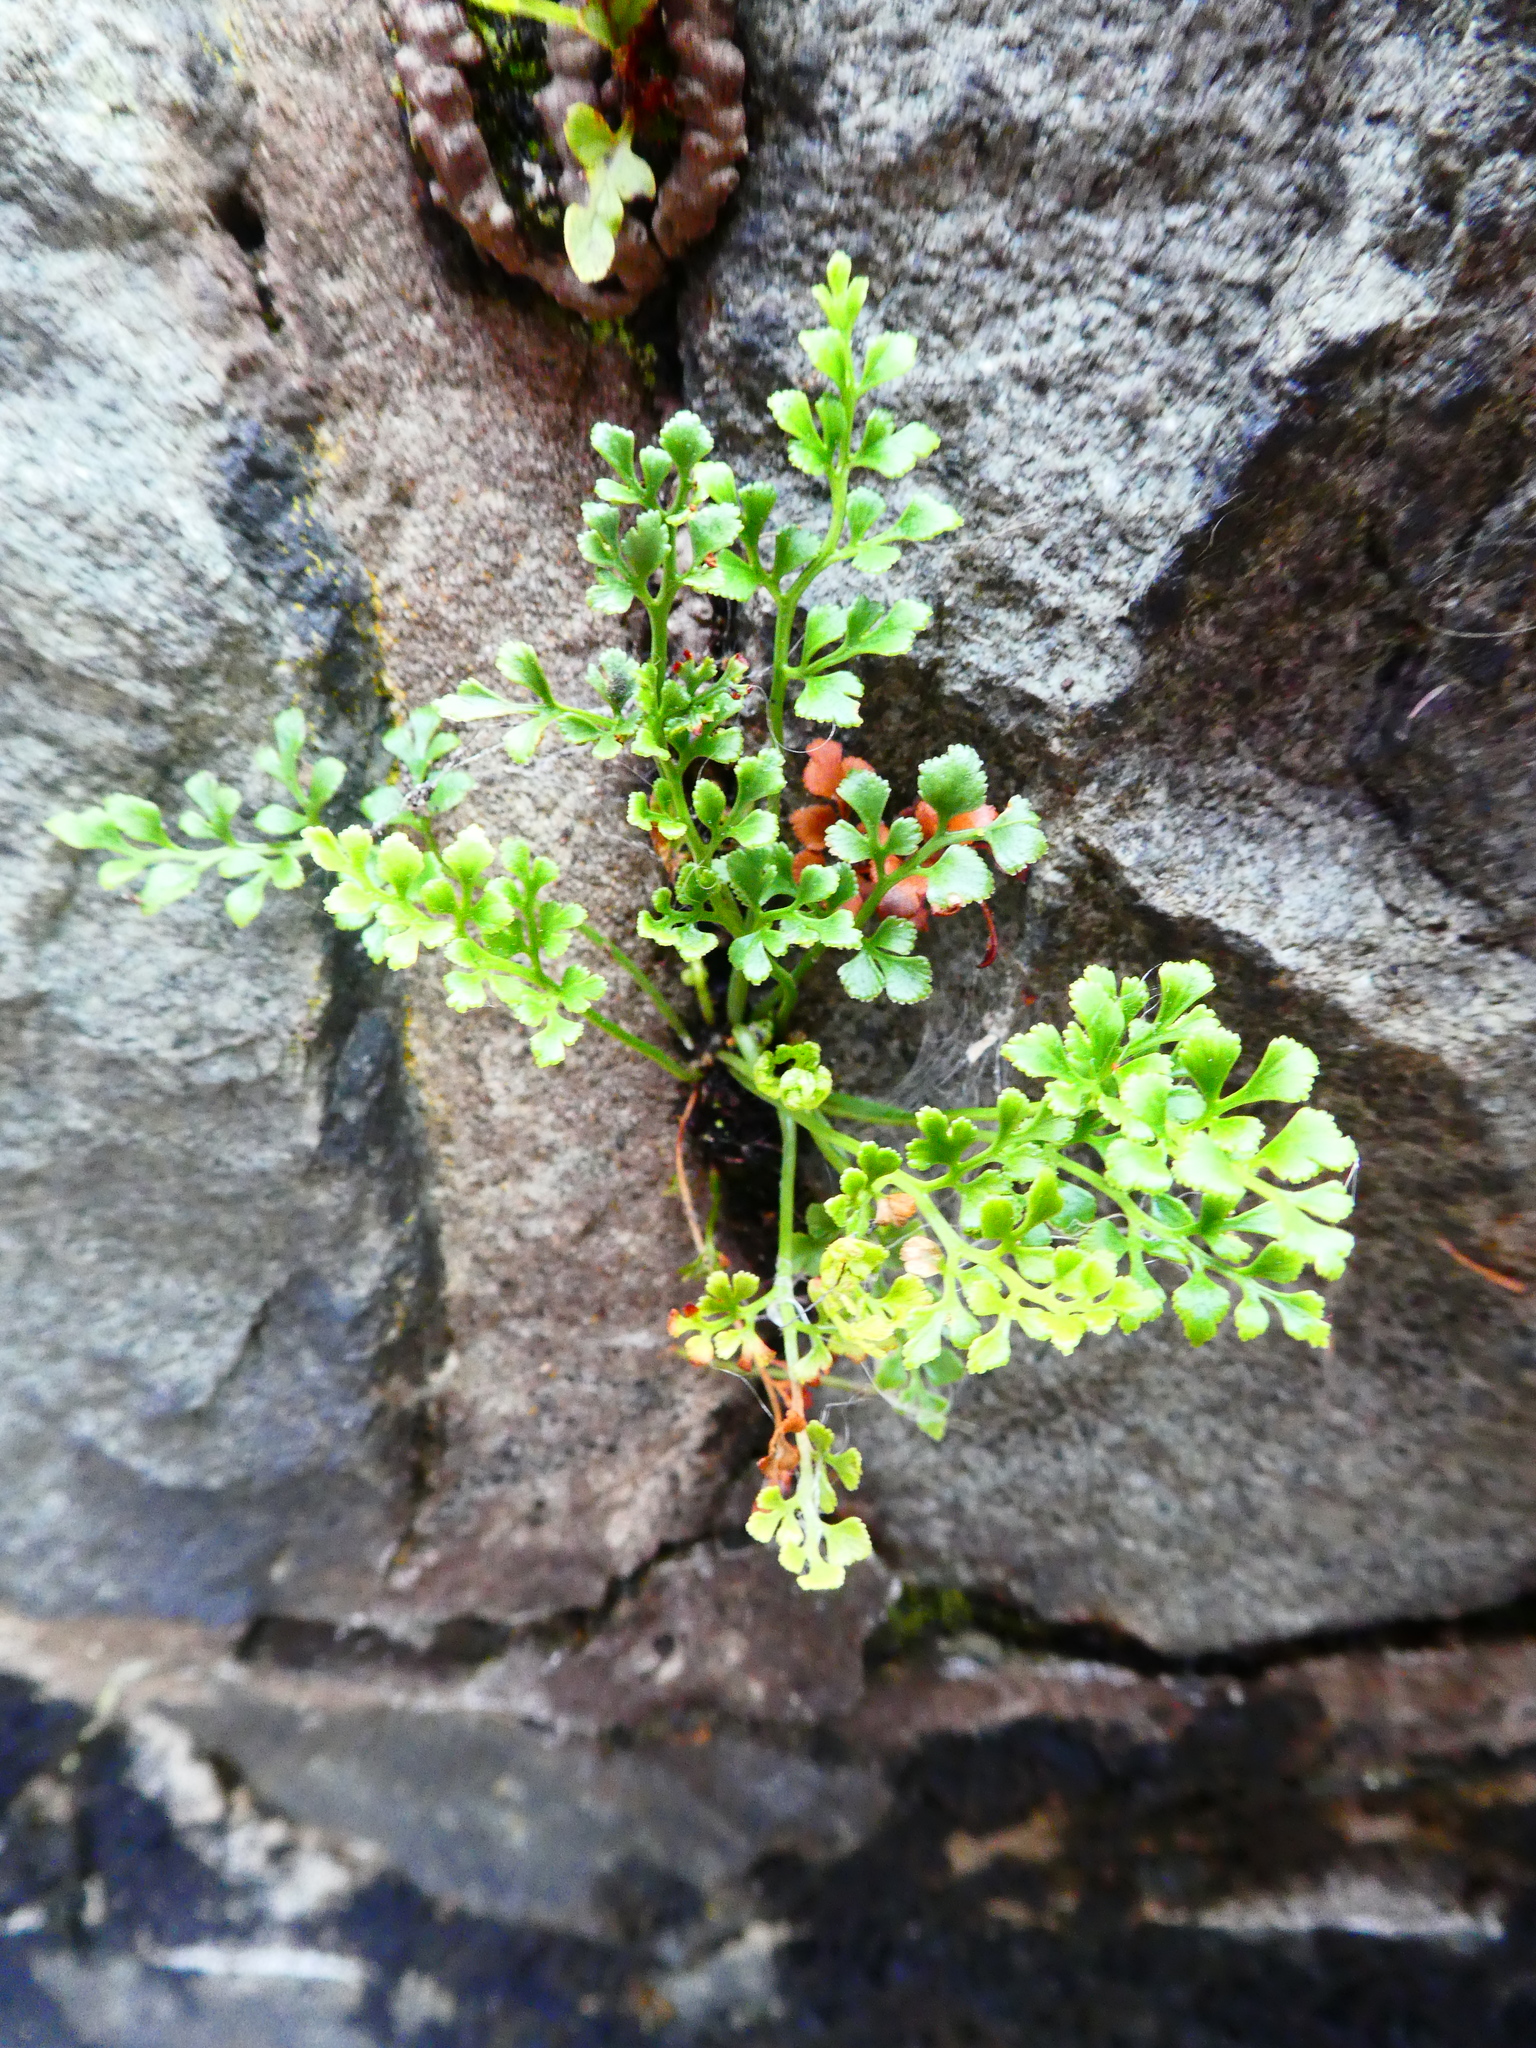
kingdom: Plantae
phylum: Tracheophyta
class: Polypodiopsida
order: Polypodiales
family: Aspleniaceae
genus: Asplenium
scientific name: Asplenium ruta-muraria
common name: Wall-rue
